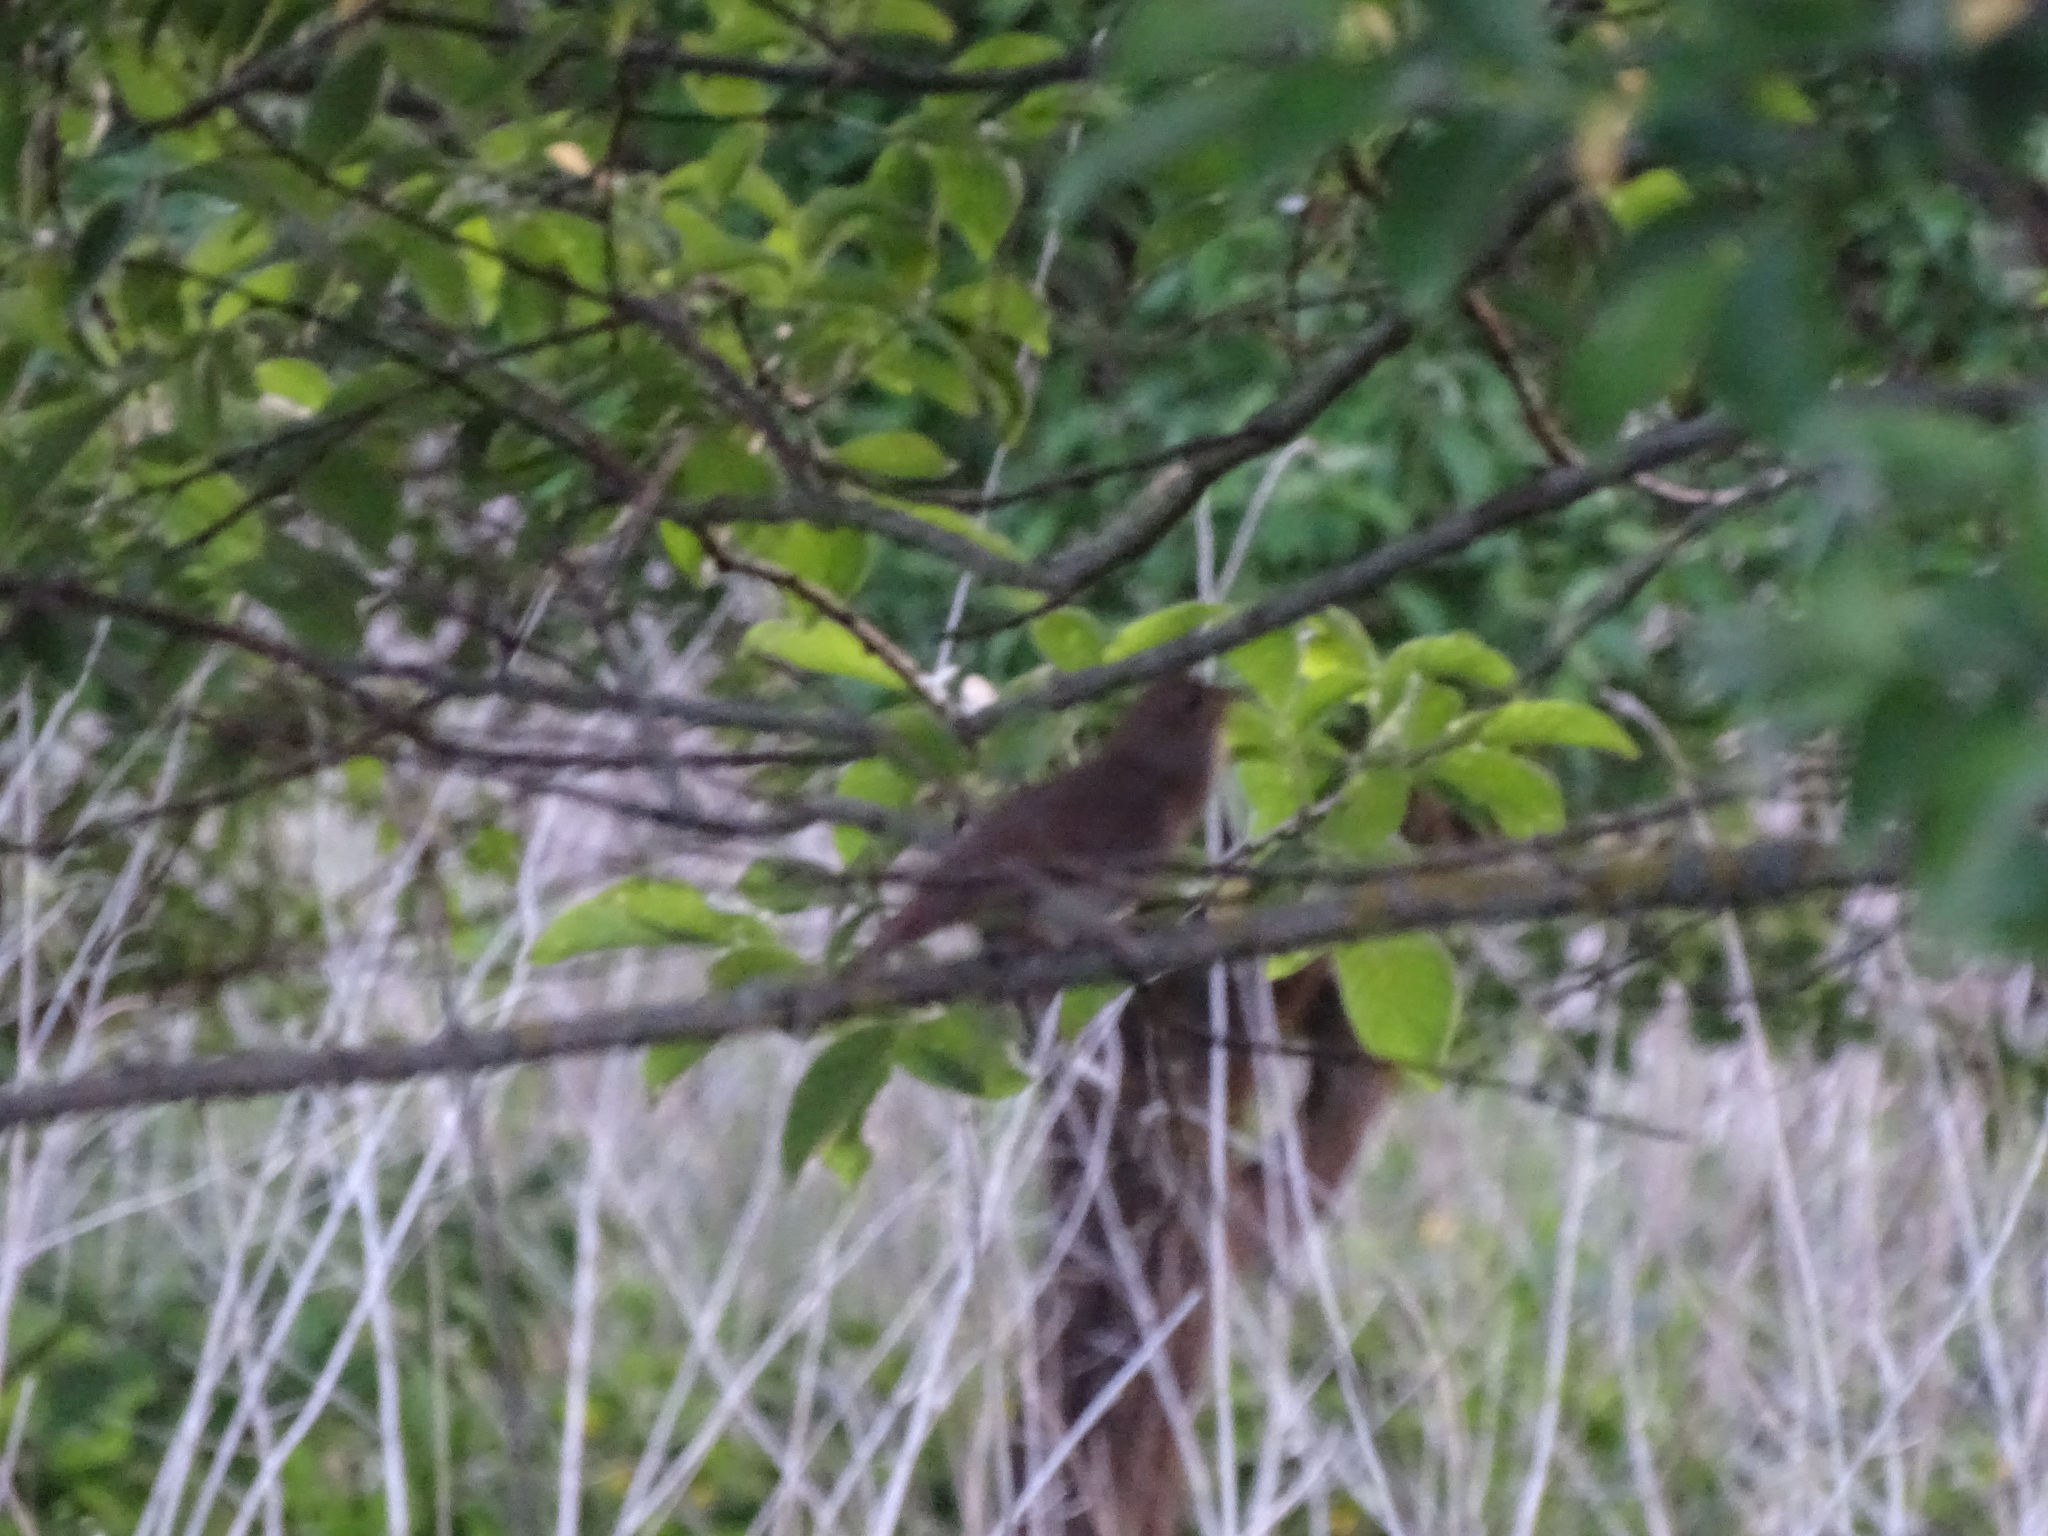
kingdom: Animalia
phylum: Chordata
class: Aves
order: Passeriformes
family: Muscicapidae
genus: Luscinia
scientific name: Luscinia luscinia
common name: Thrush nightingale
